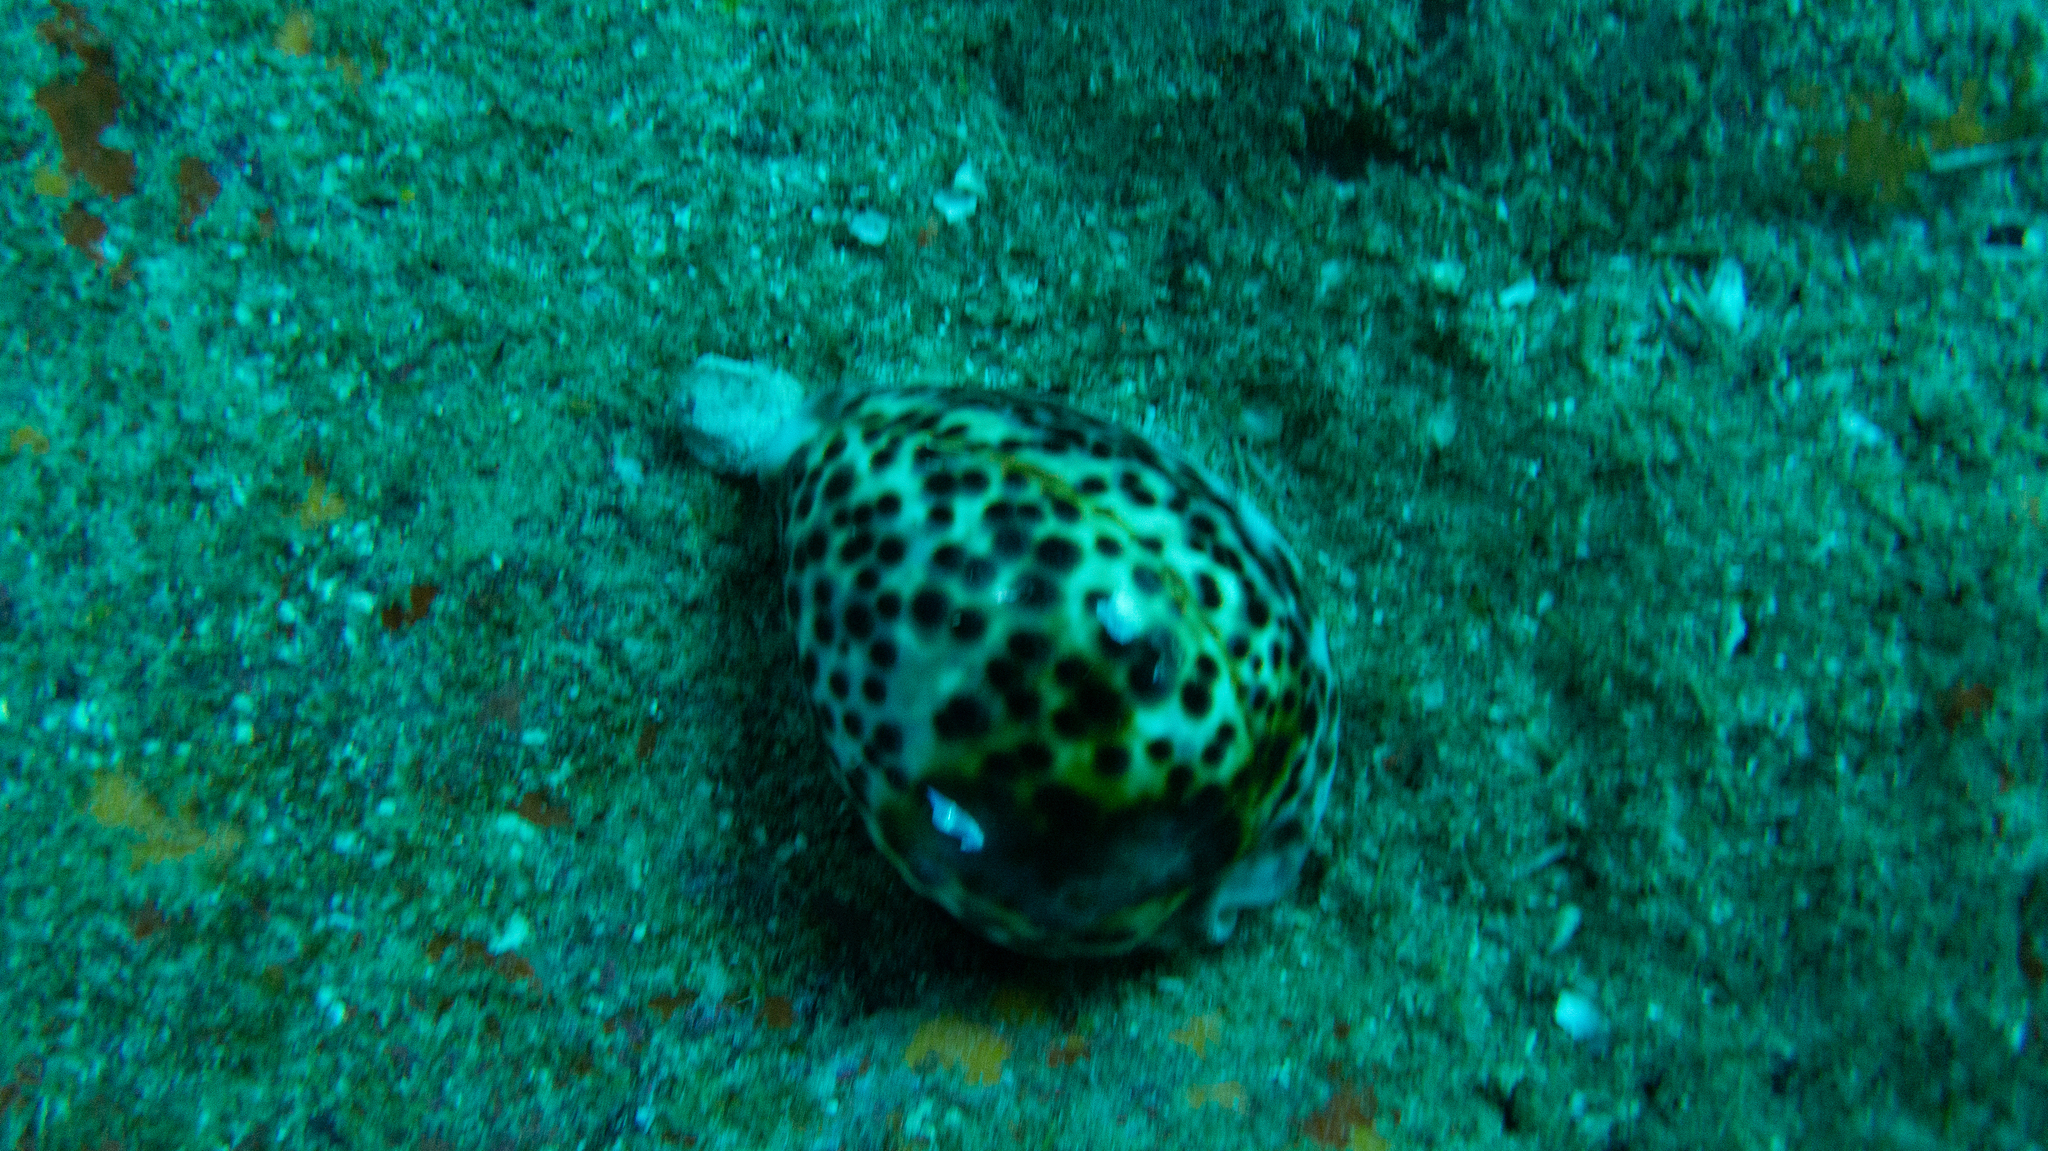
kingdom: Animalia
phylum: Mollusca
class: Gastropoda
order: Littorinimorpha
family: Cypraeidae
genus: Cypraea
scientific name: Cypraea tigris
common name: Tiger cowrie
